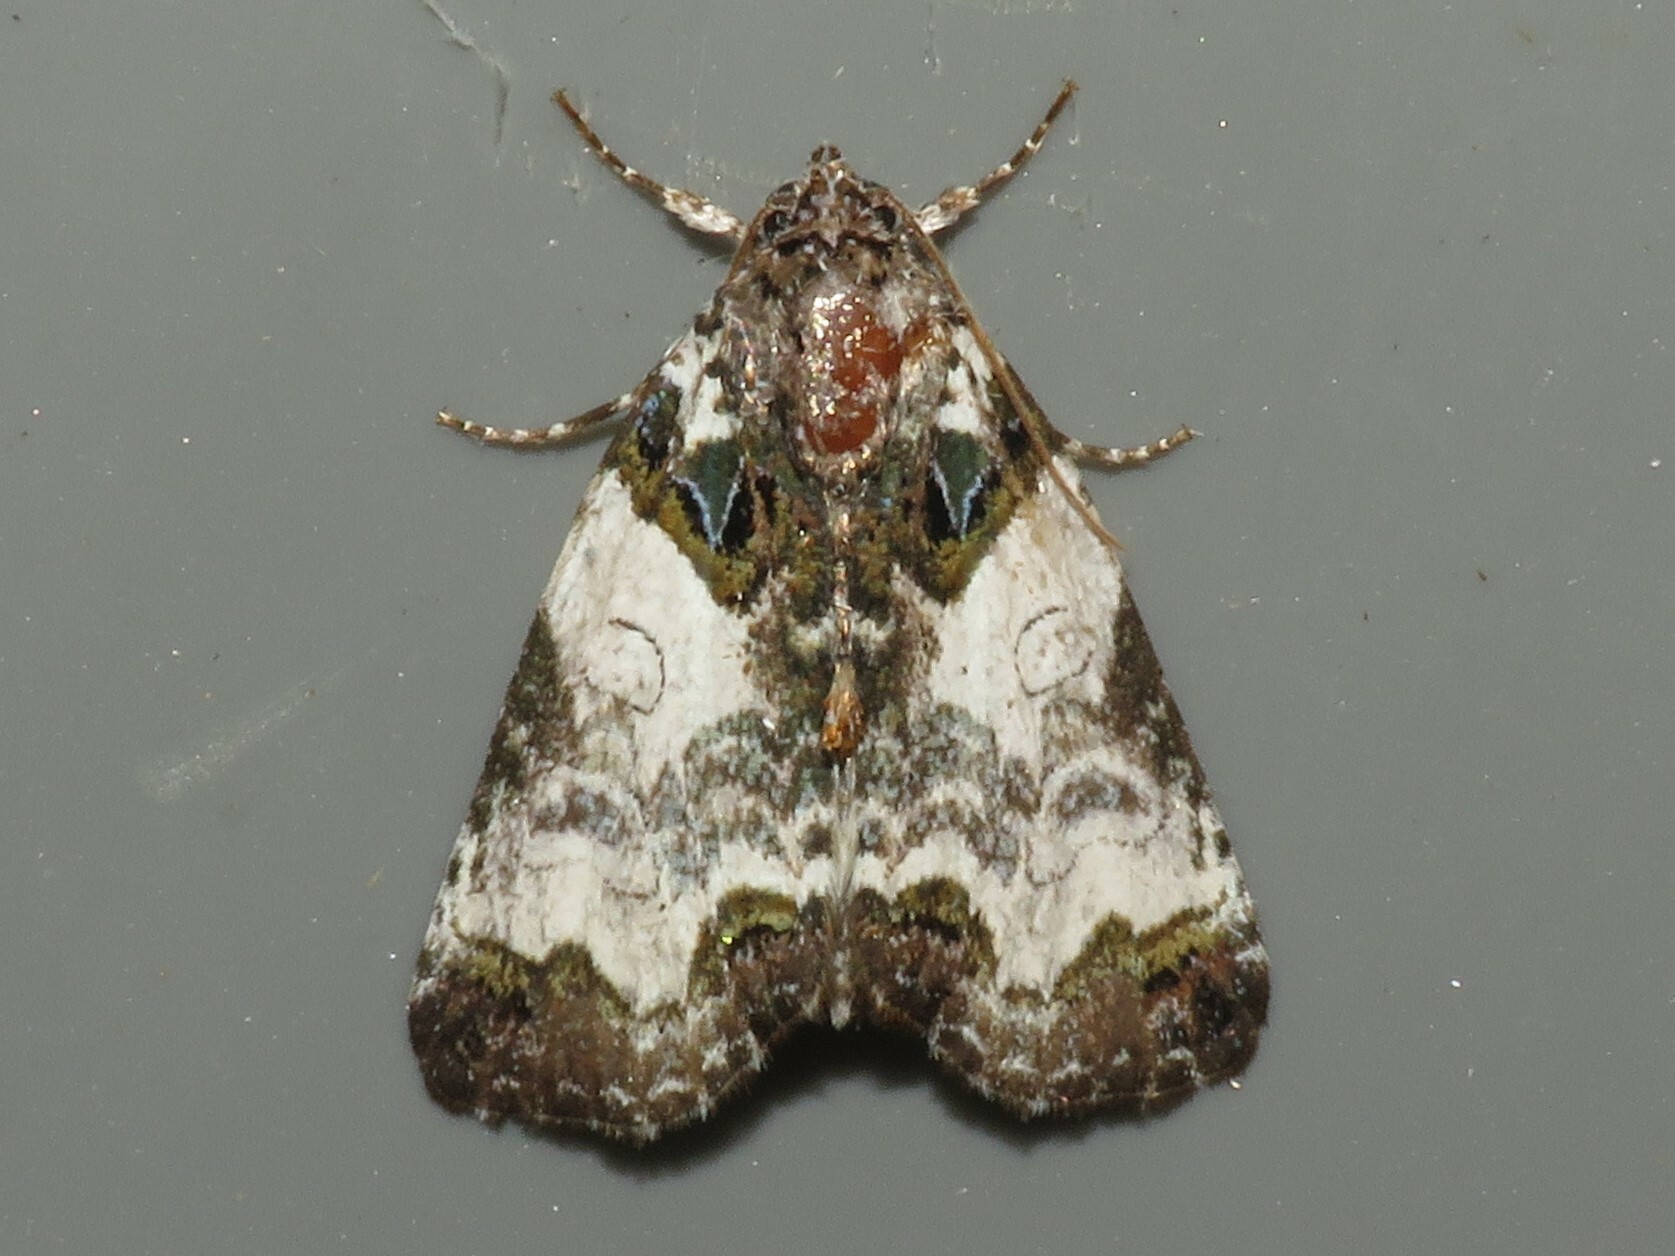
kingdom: Animalia
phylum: Arthropoda
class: Insecta
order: Lepidoptera
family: Noctuidae
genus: Cerma
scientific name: Cerma cerintha
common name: Tufted bird-dropping moth
